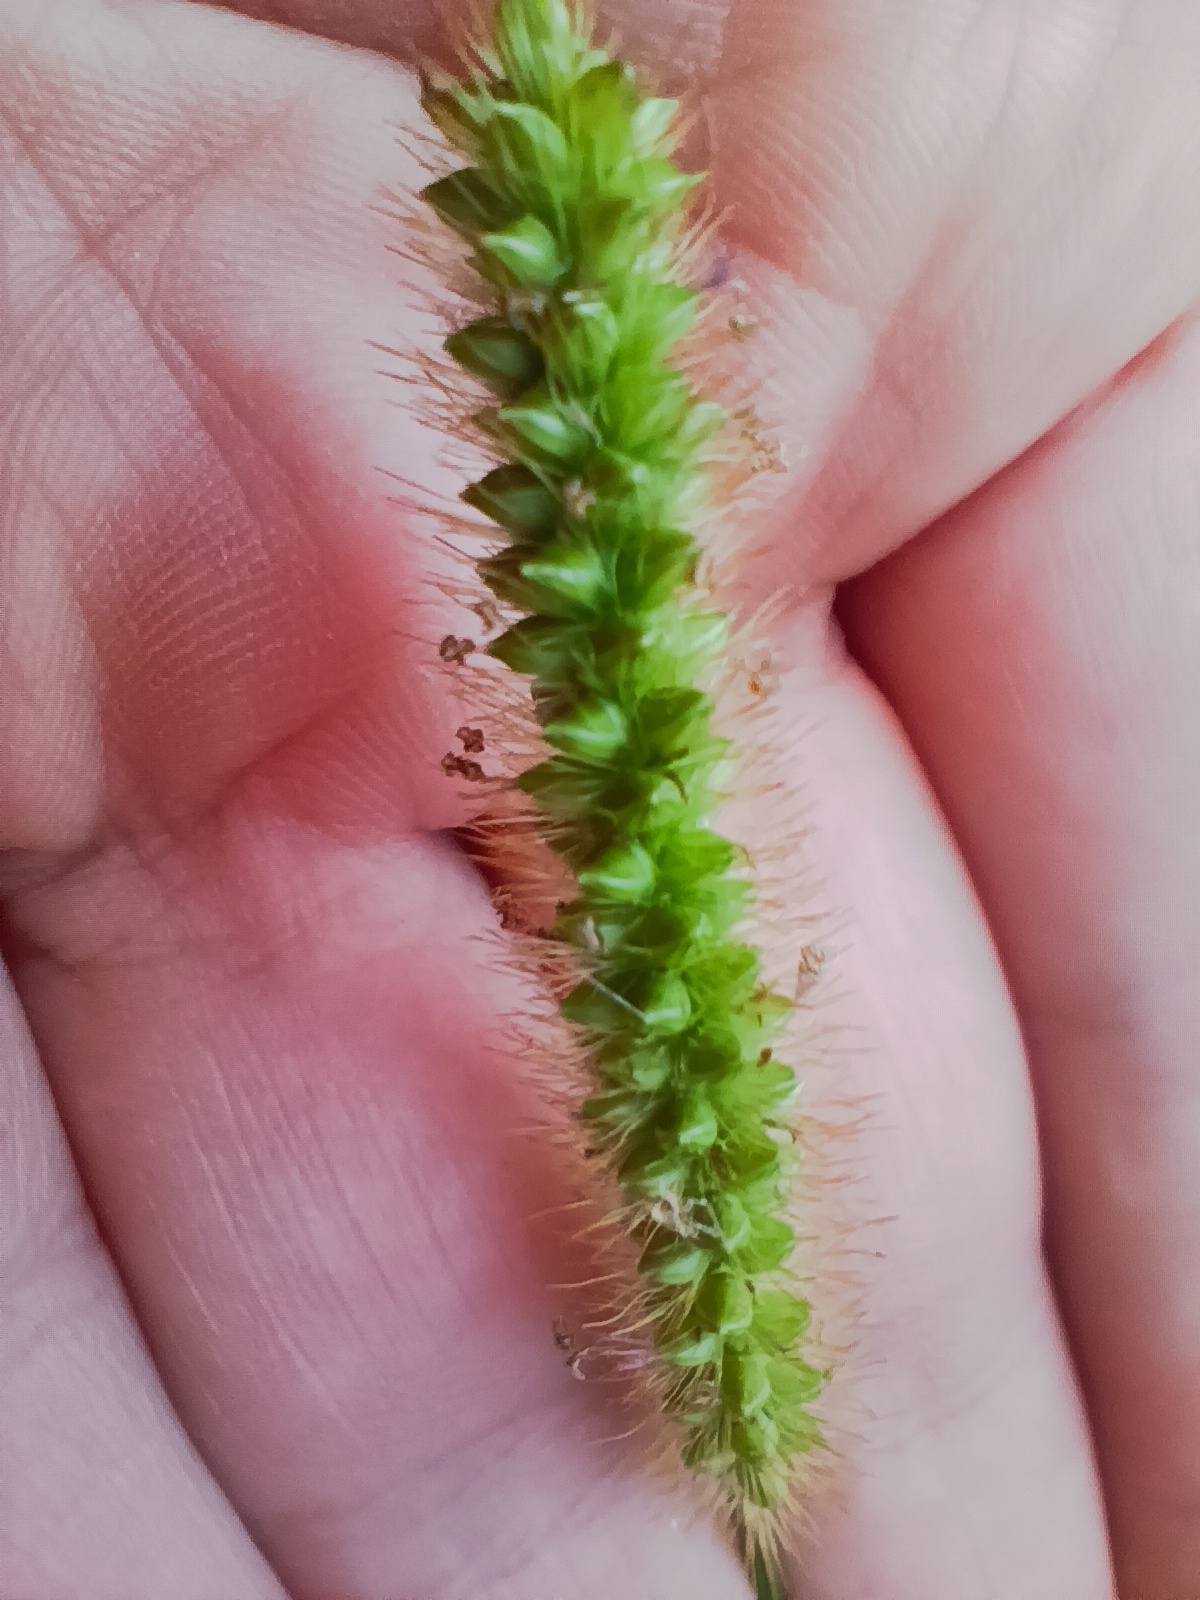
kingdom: Plantae
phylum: Tracheophyta
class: Liliopsida
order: Poales
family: Poaceae
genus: Setaria
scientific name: Setaria pumila
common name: Yellow bristle-grass
